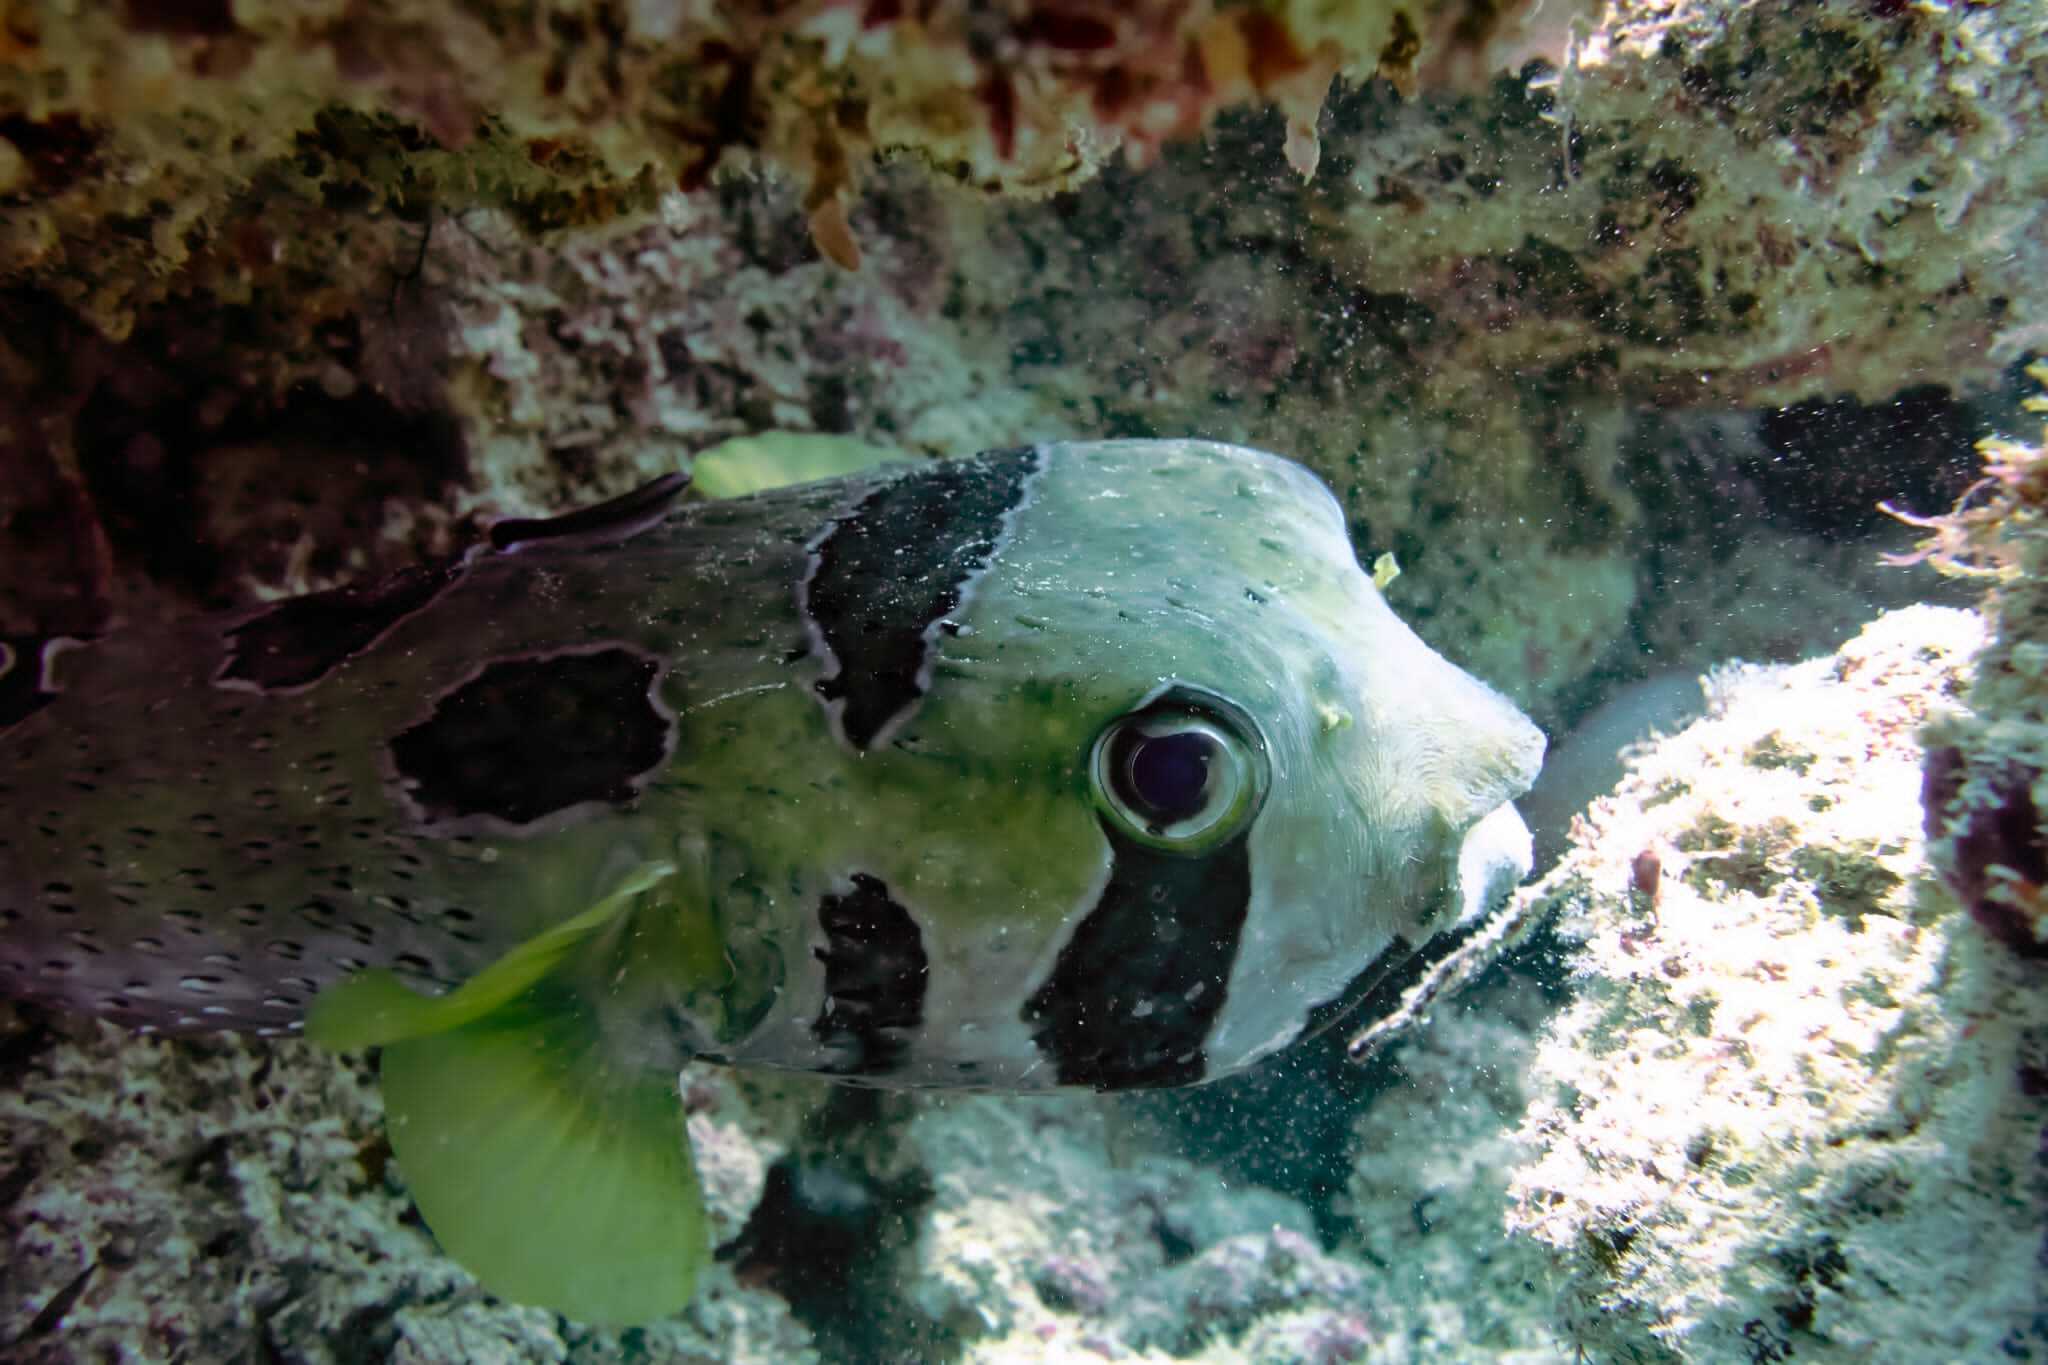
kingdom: Animalia
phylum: Chordata
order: Tetraodontiformes
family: Diodontidae
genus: Diodon
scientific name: Diodon liturosus
